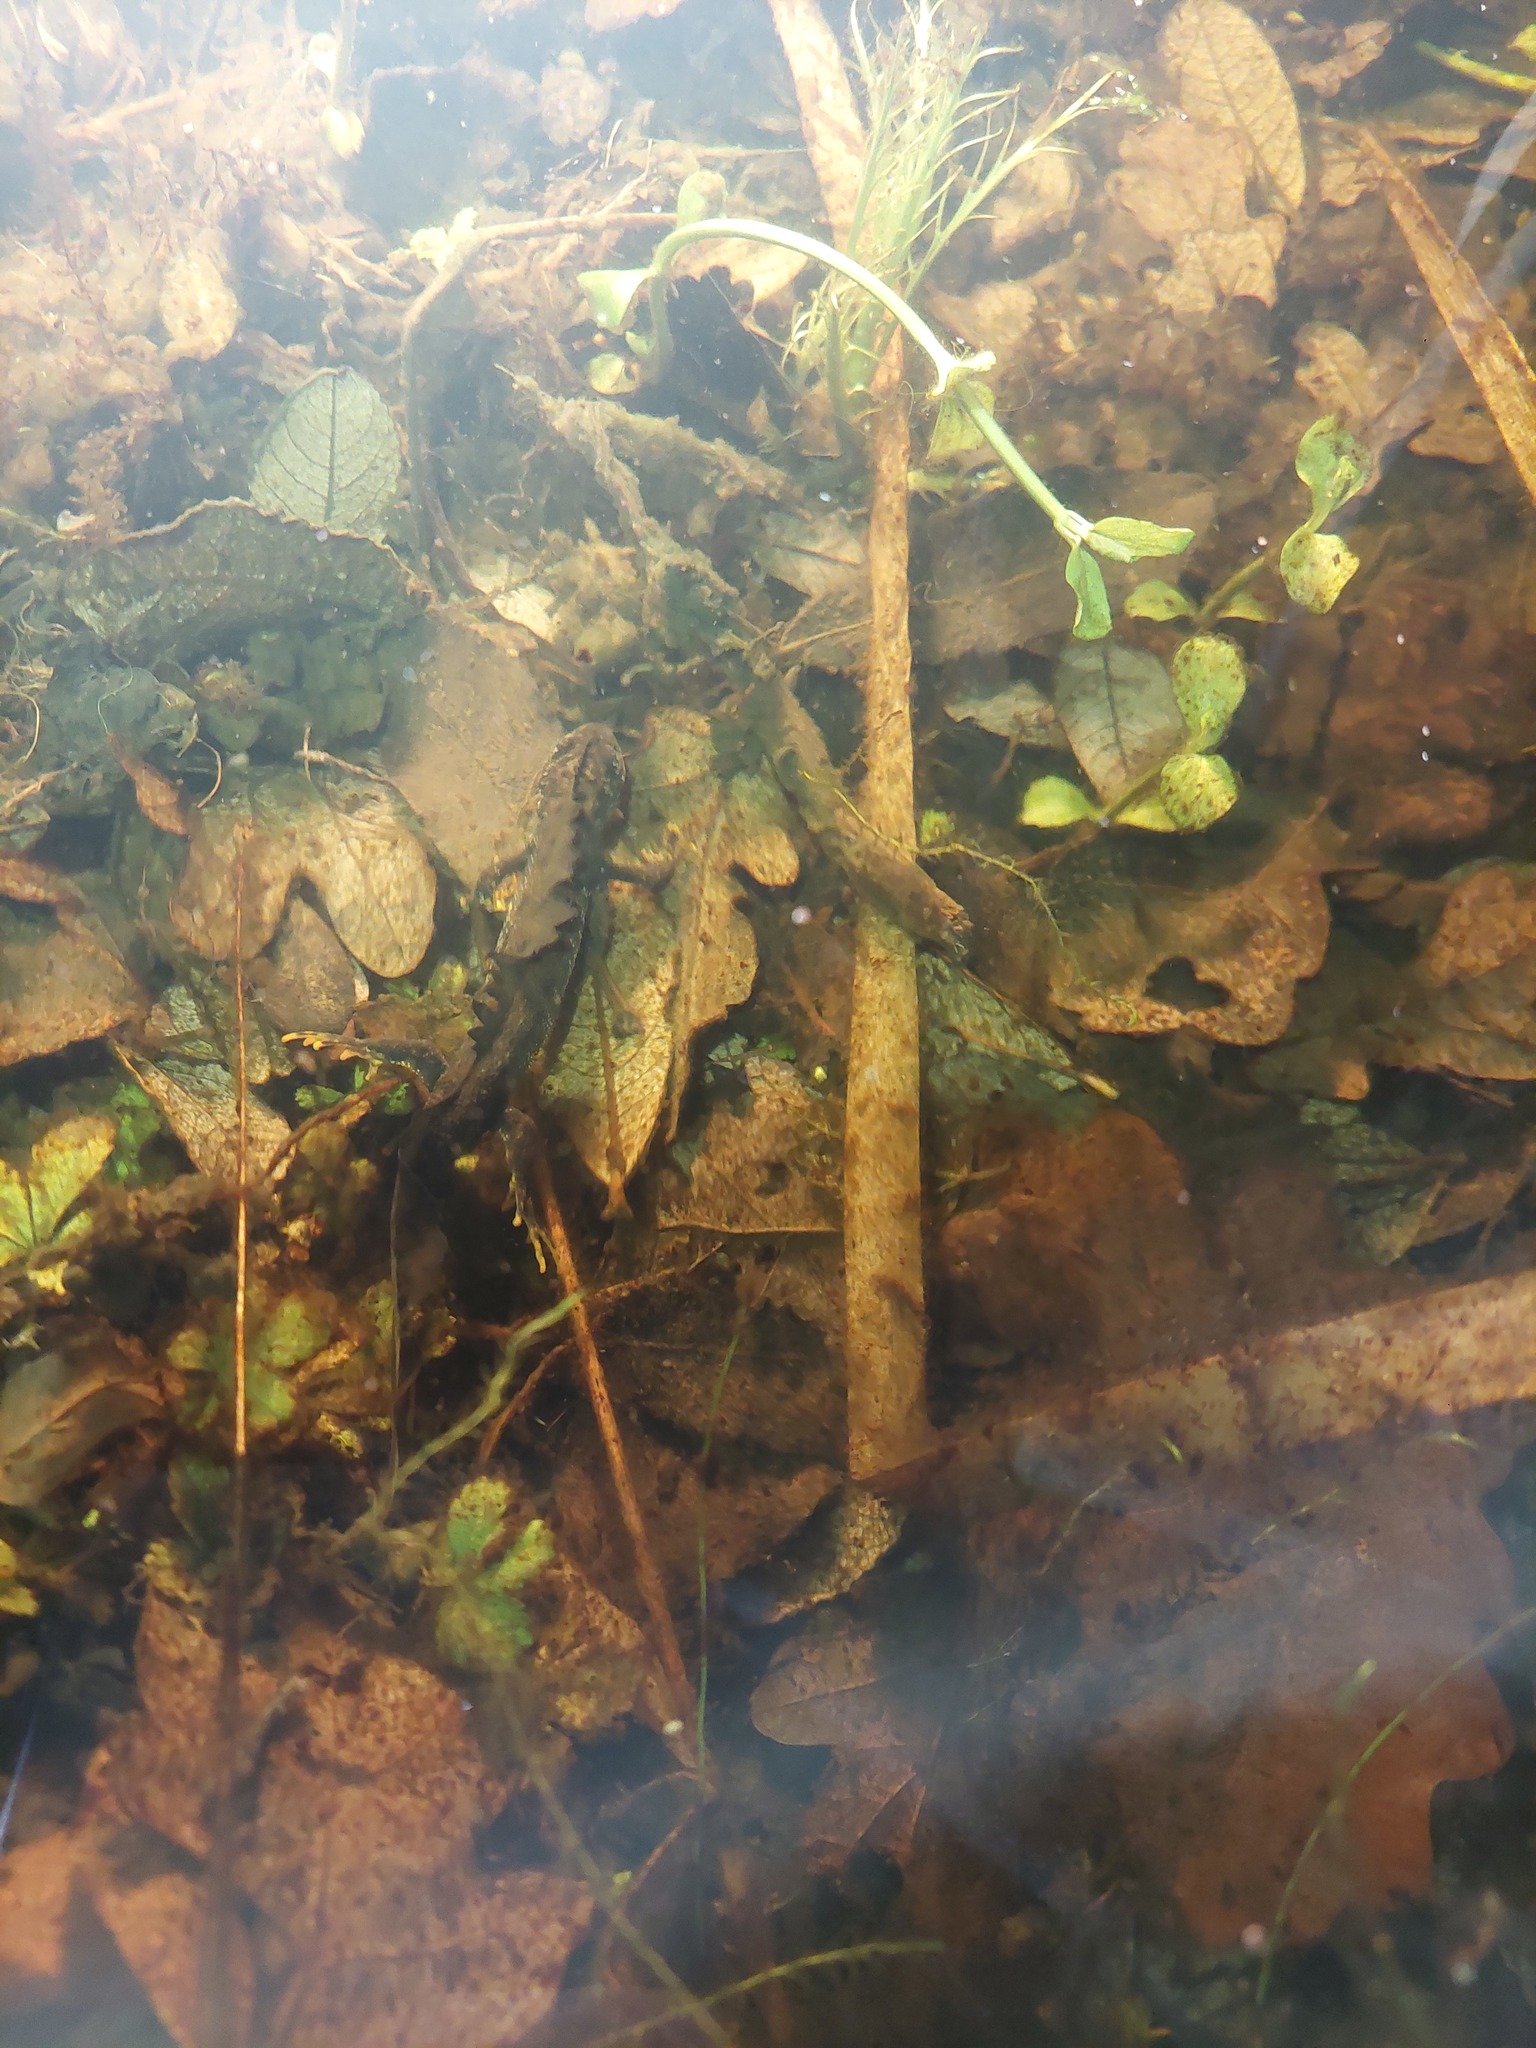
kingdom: Animalia
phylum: Chordata
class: Amphibia
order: Caudata
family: Salamandridae
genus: Triturus
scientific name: Triturus cristatus
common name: Crested newt
